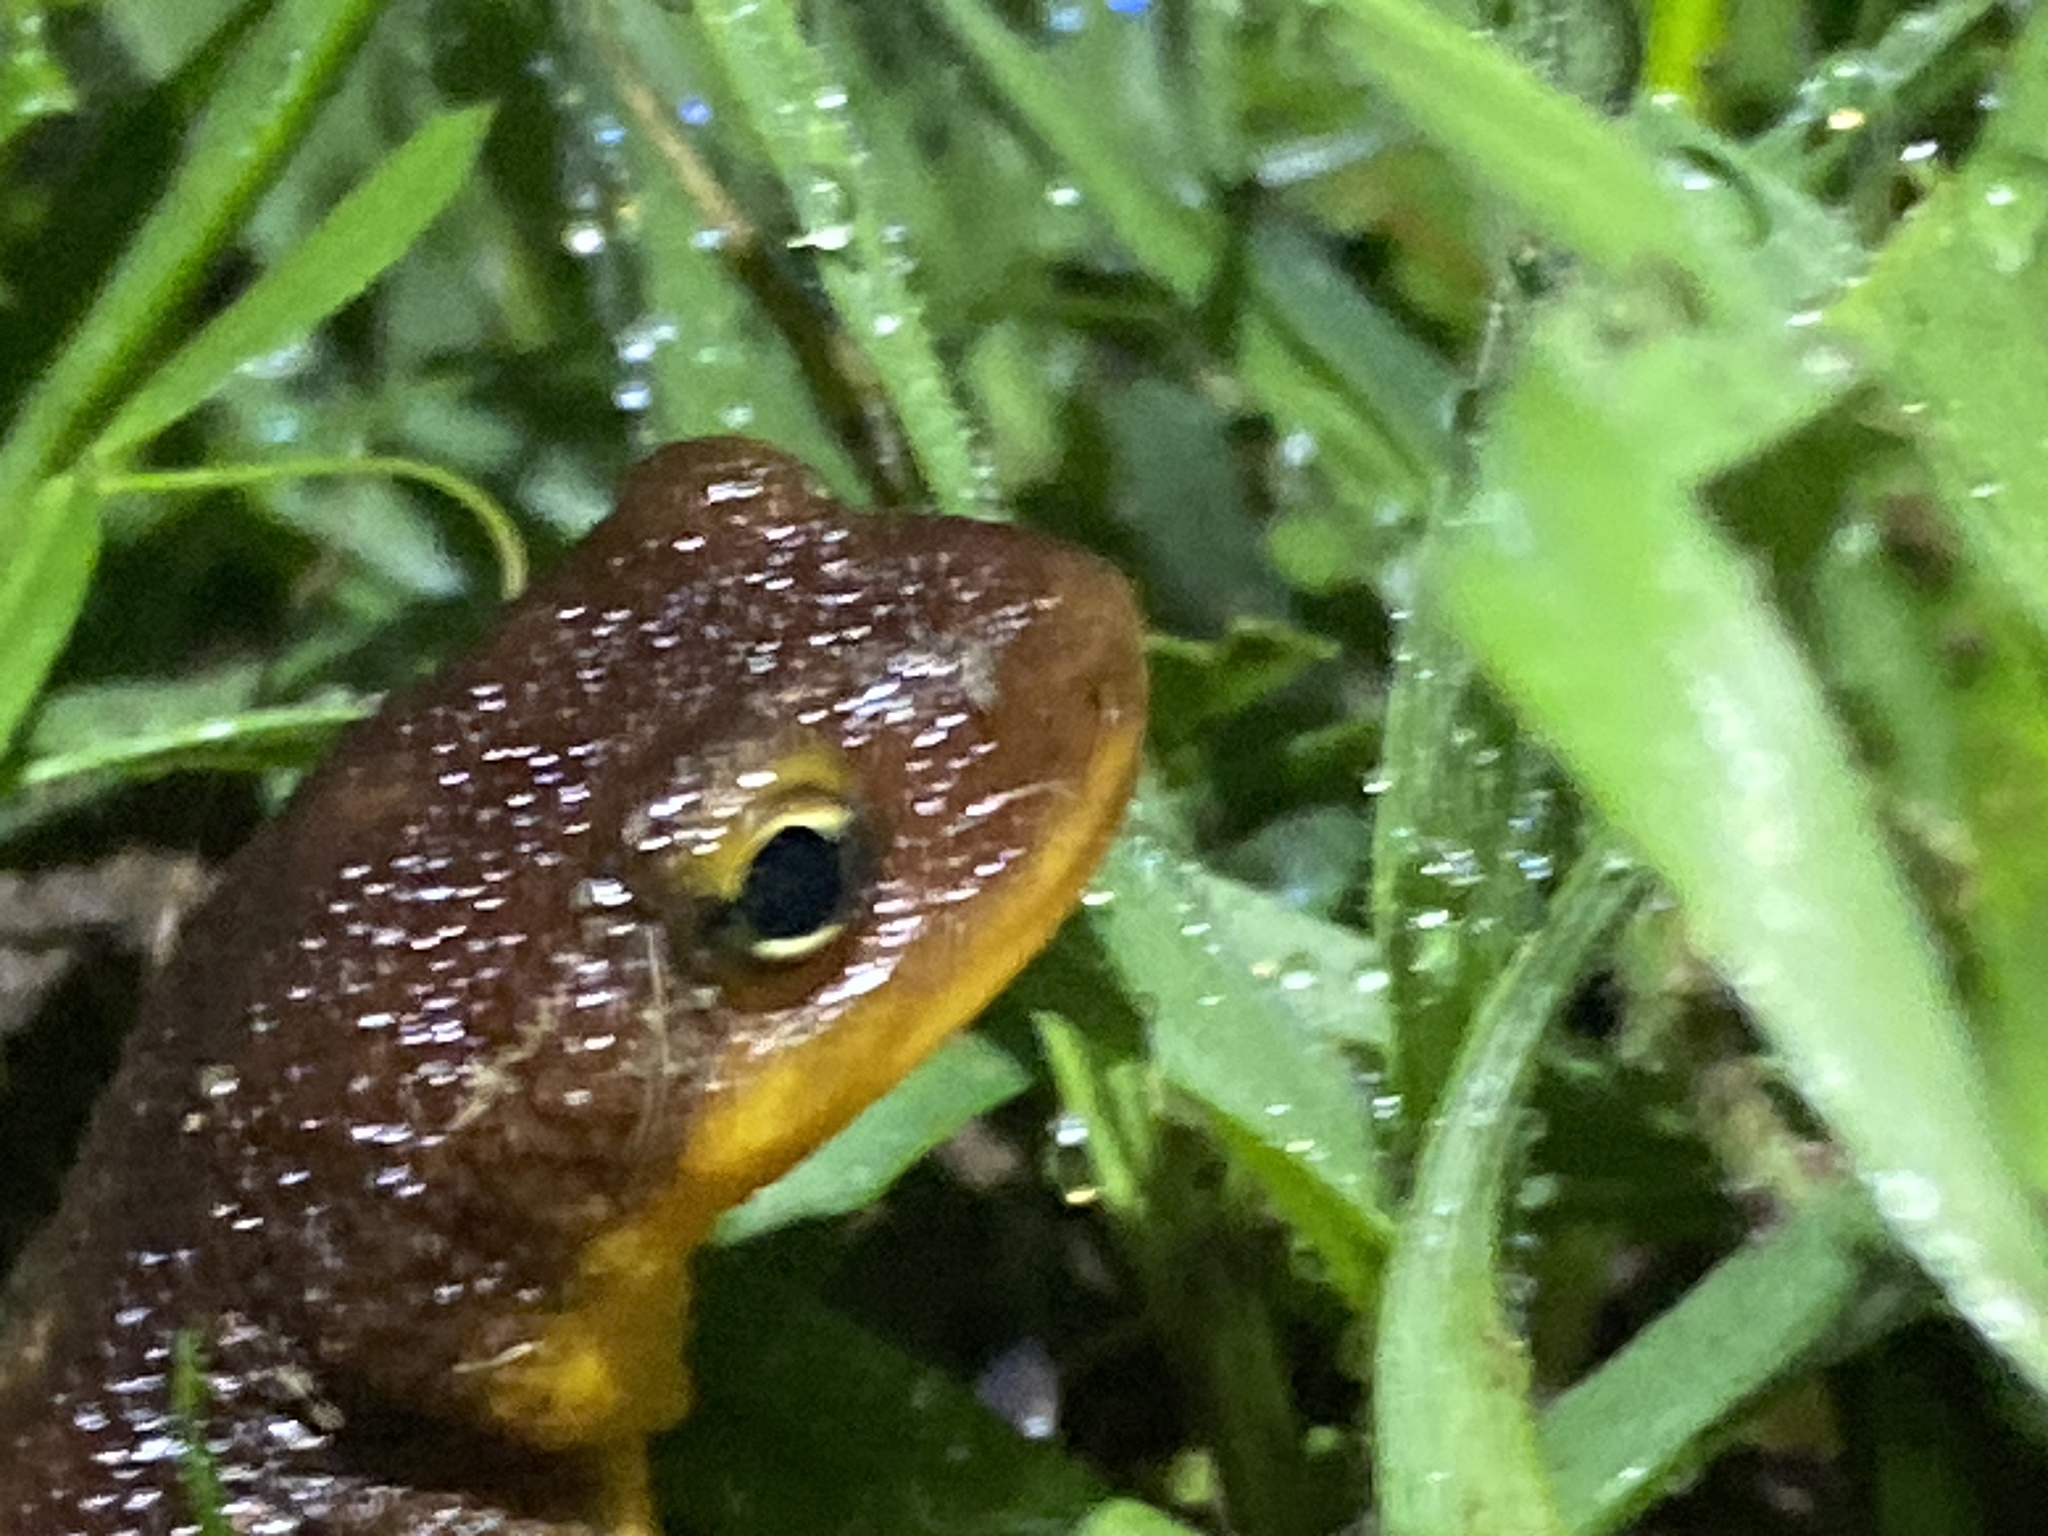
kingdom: Animalia
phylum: Chordata
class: Amphibia
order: Caudata
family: Salamandridae
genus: Taricha
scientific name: Taricha torosa
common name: California newt
